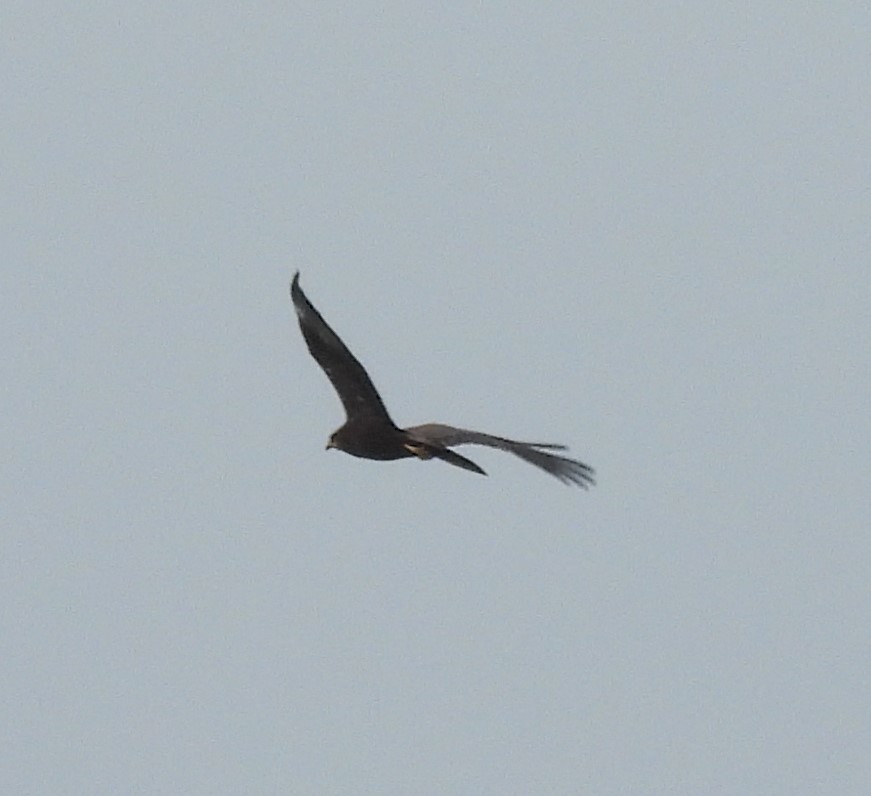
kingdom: Animalia
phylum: Chordata
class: Aves
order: Accipitriformes
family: Accipitridae
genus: Circus
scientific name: Circus aeruginosus
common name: Western marsh harrier
